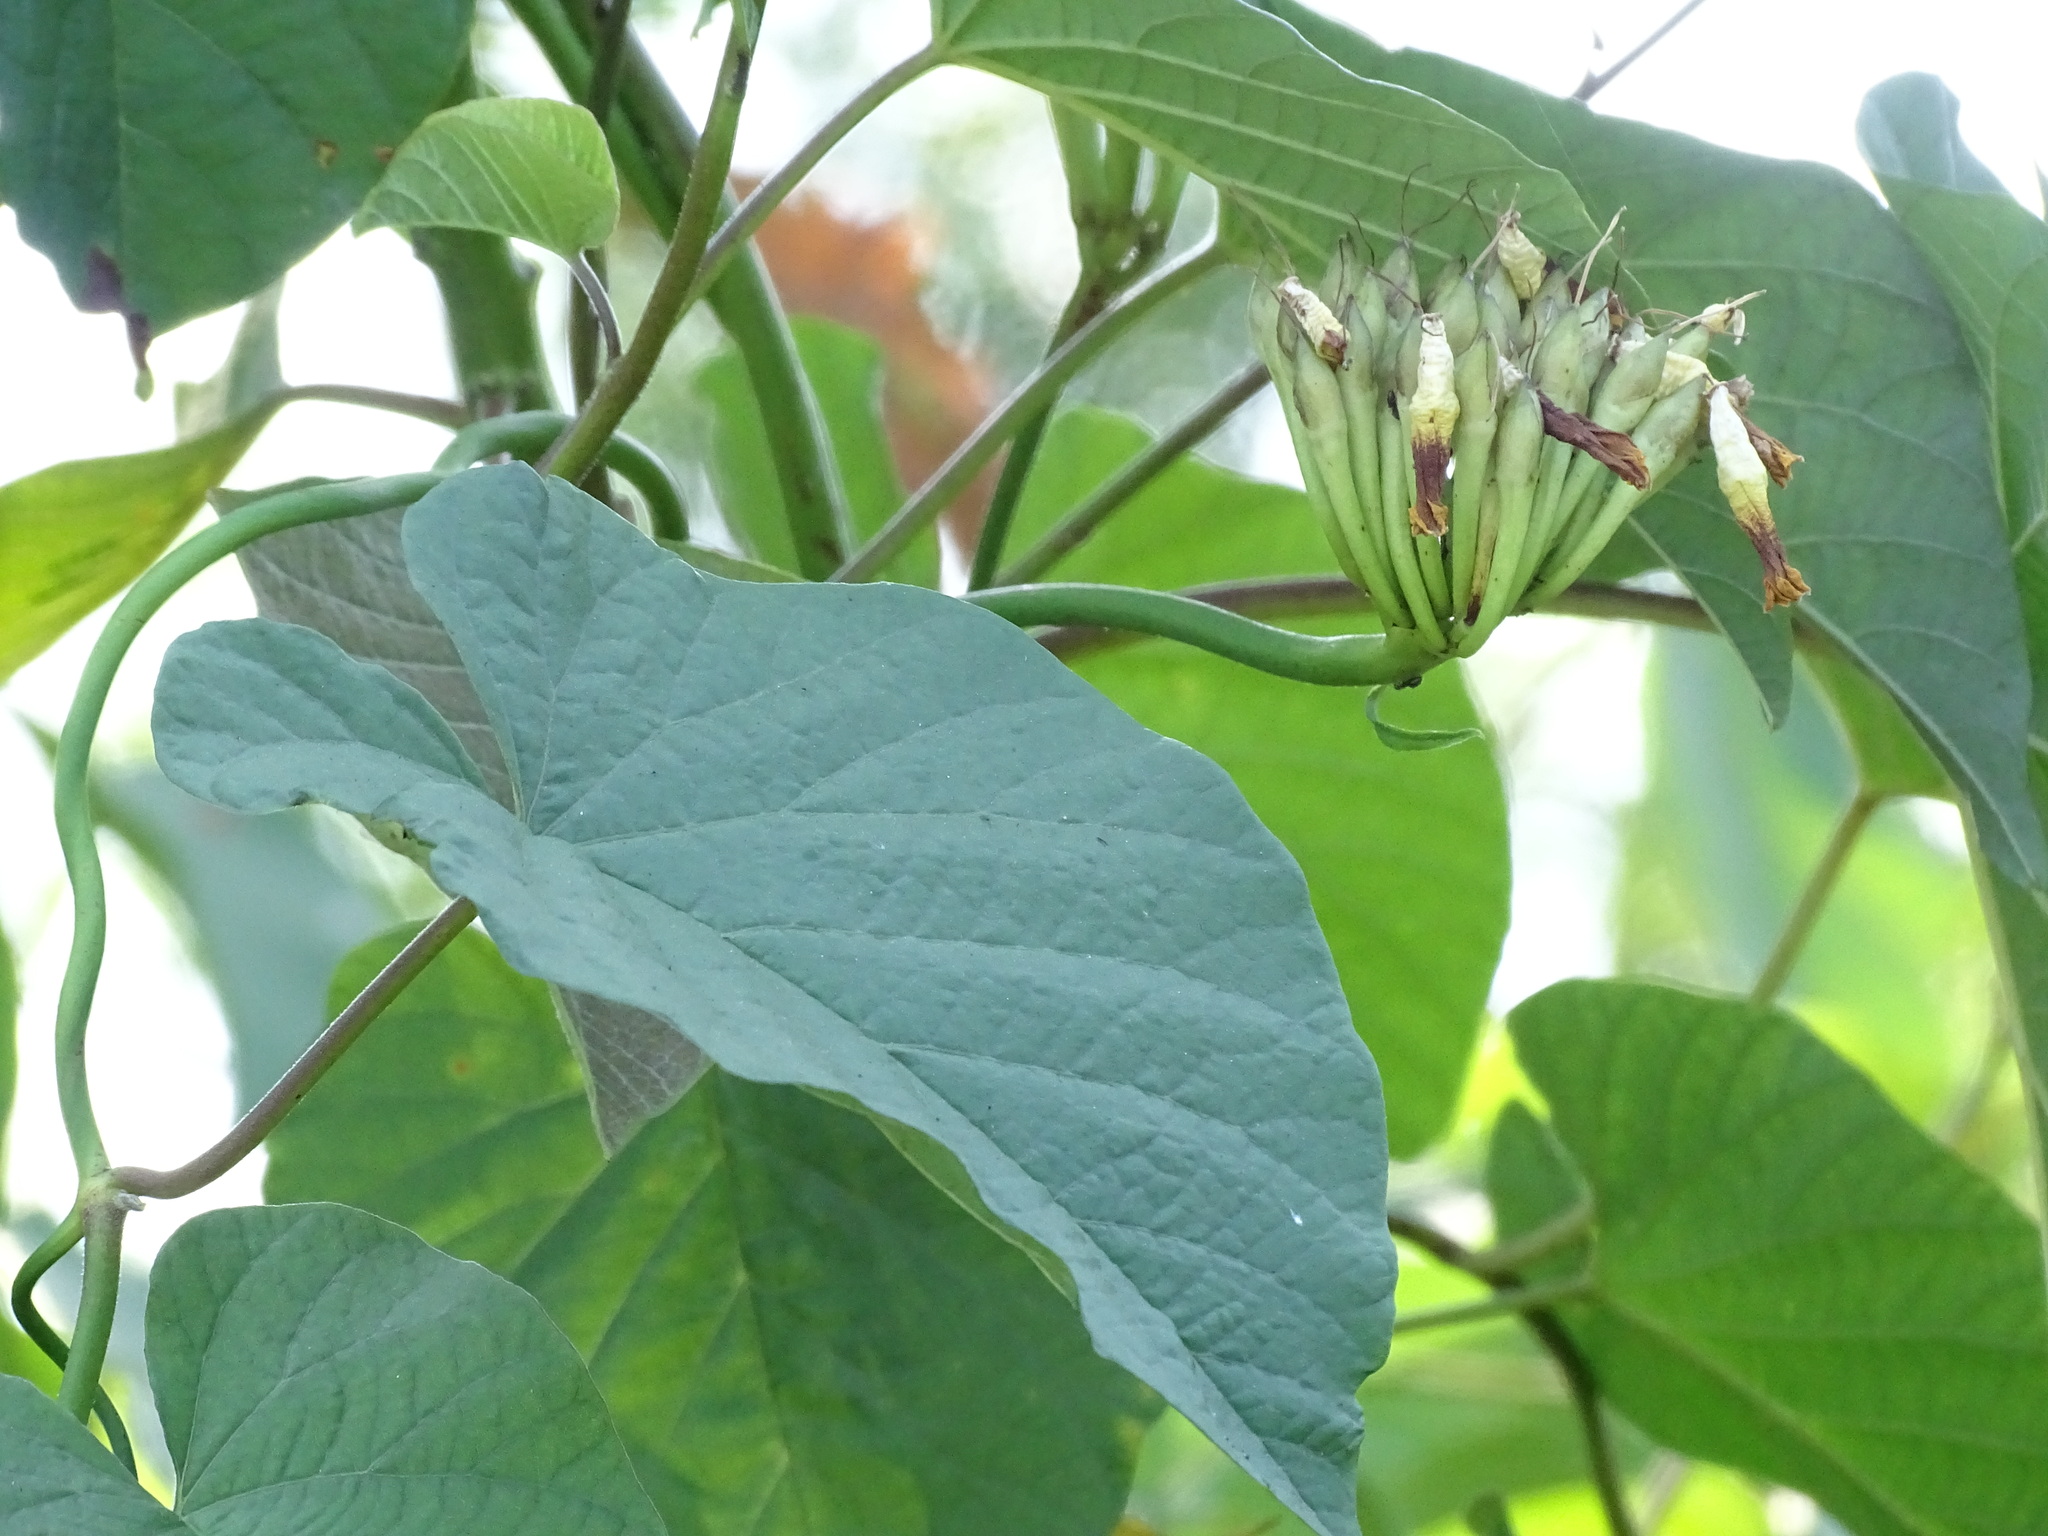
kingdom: Plantae
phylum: Tracheophyta
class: Magnoliopsida
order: Solanales
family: Convolvulaceae
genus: Camonea
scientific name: Camonea umbellata
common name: Hogvine
